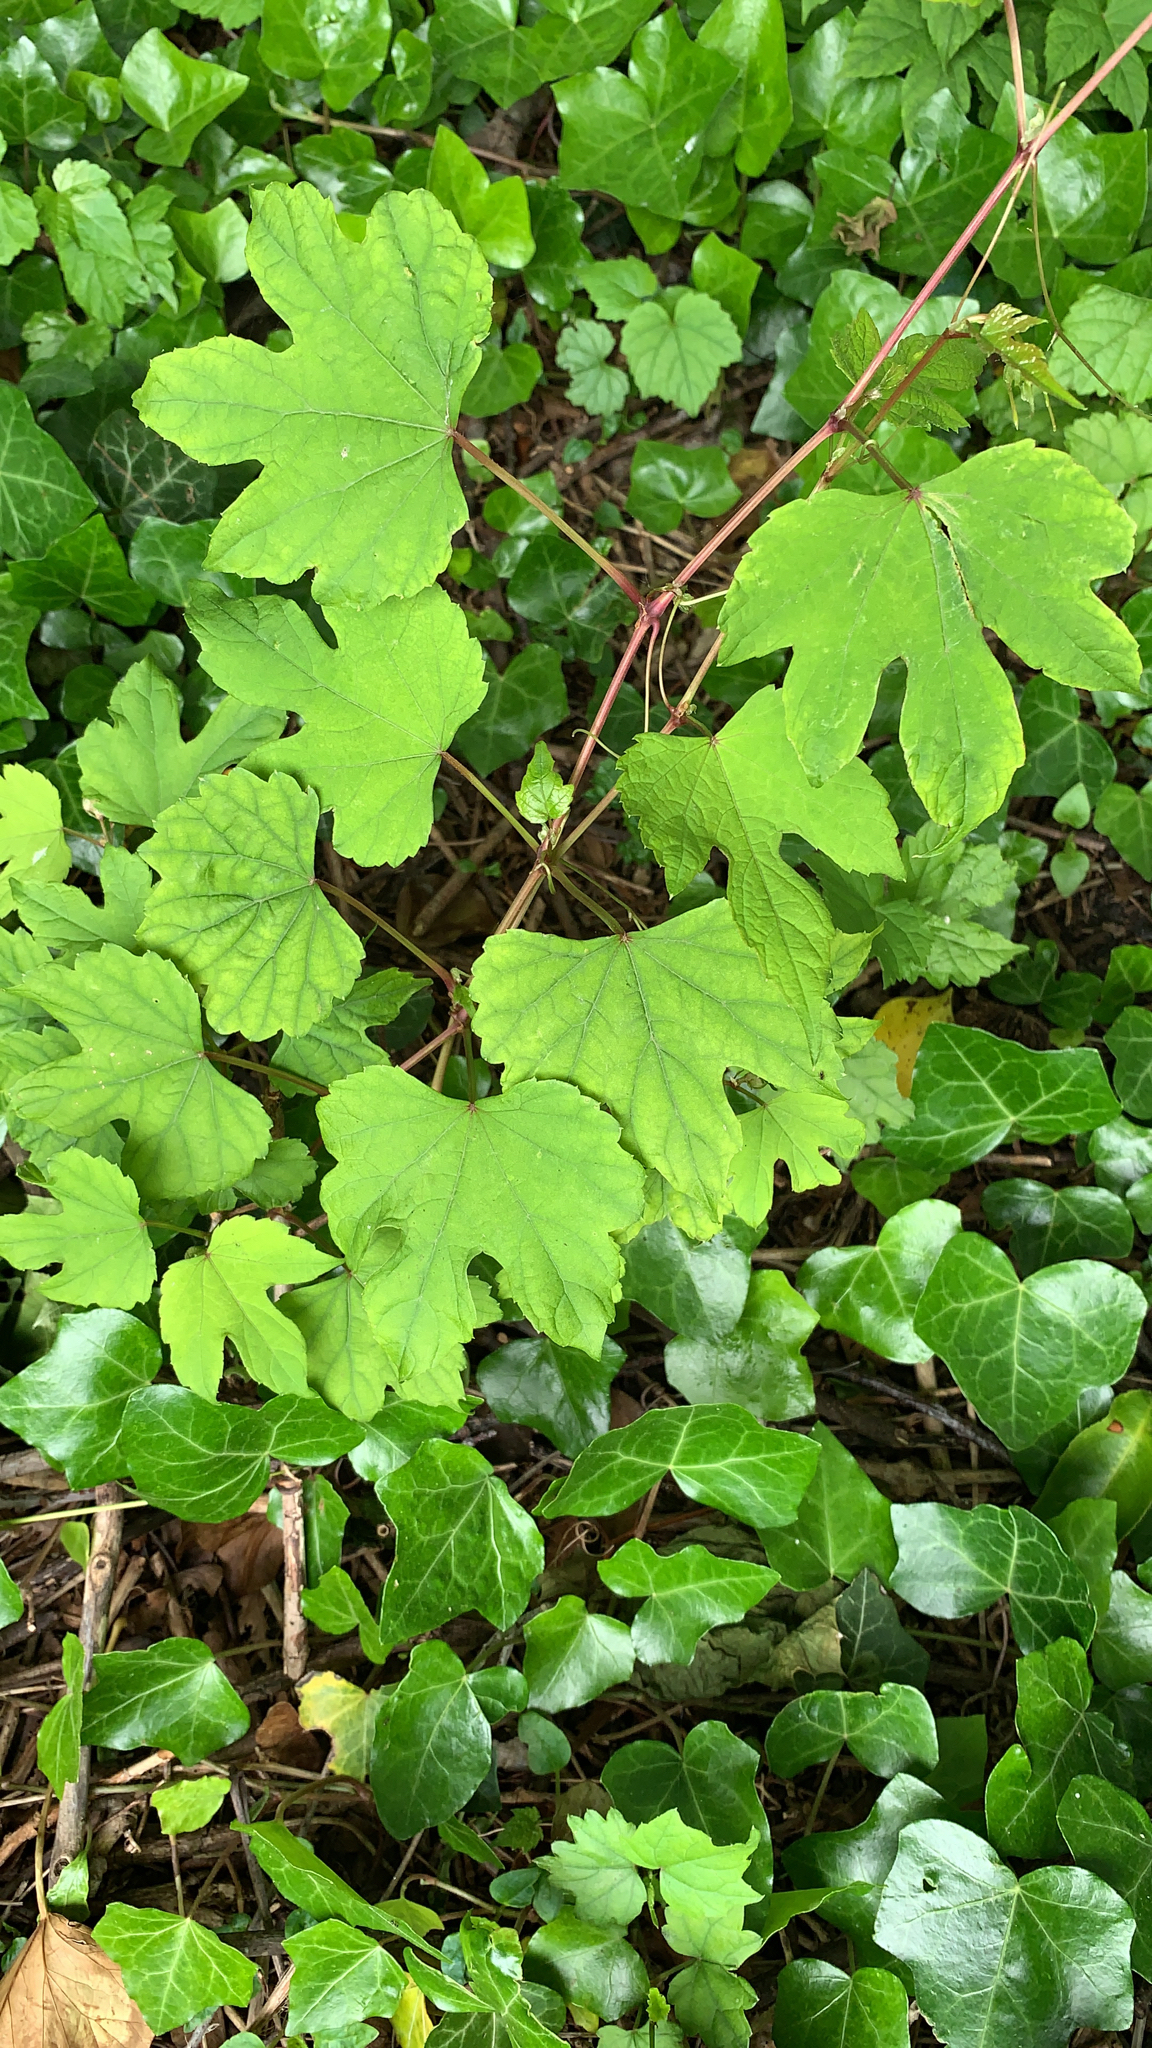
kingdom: Plantae
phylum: Tracheophyta
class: Magnoliopsida
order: Vitales
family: Vitaceae
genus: Ampelopsis
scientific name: Ampelopsis glandulosa
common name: Amur peppervine
